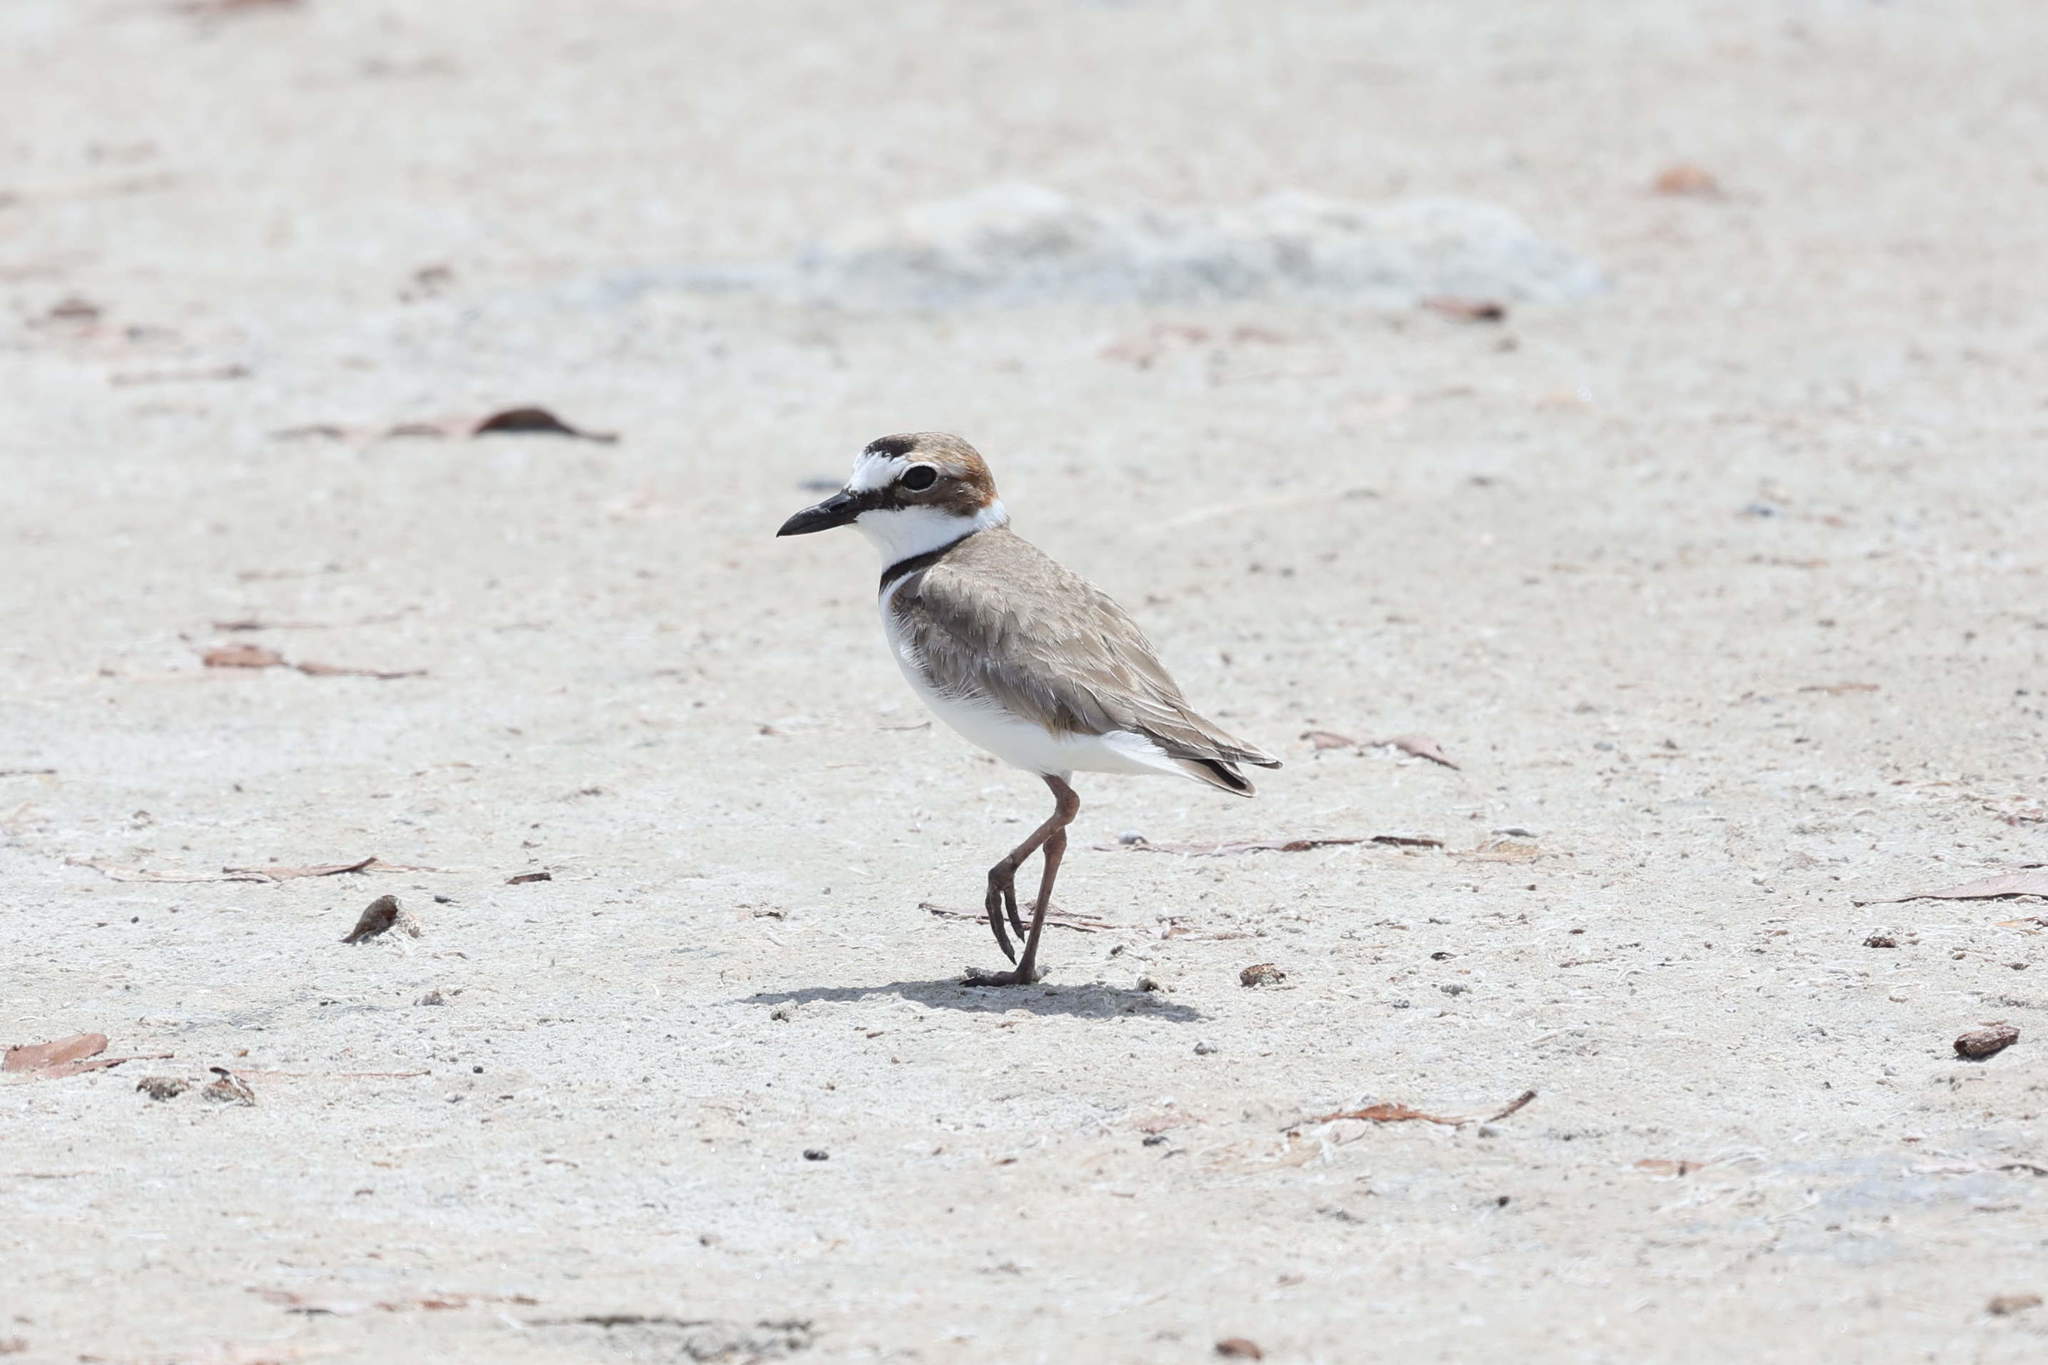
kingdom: Animalia
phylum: Chordata
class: Aves
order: Charadriiformes
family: Charadriidae
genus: Anarhynchus
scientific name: Anarhynchus
